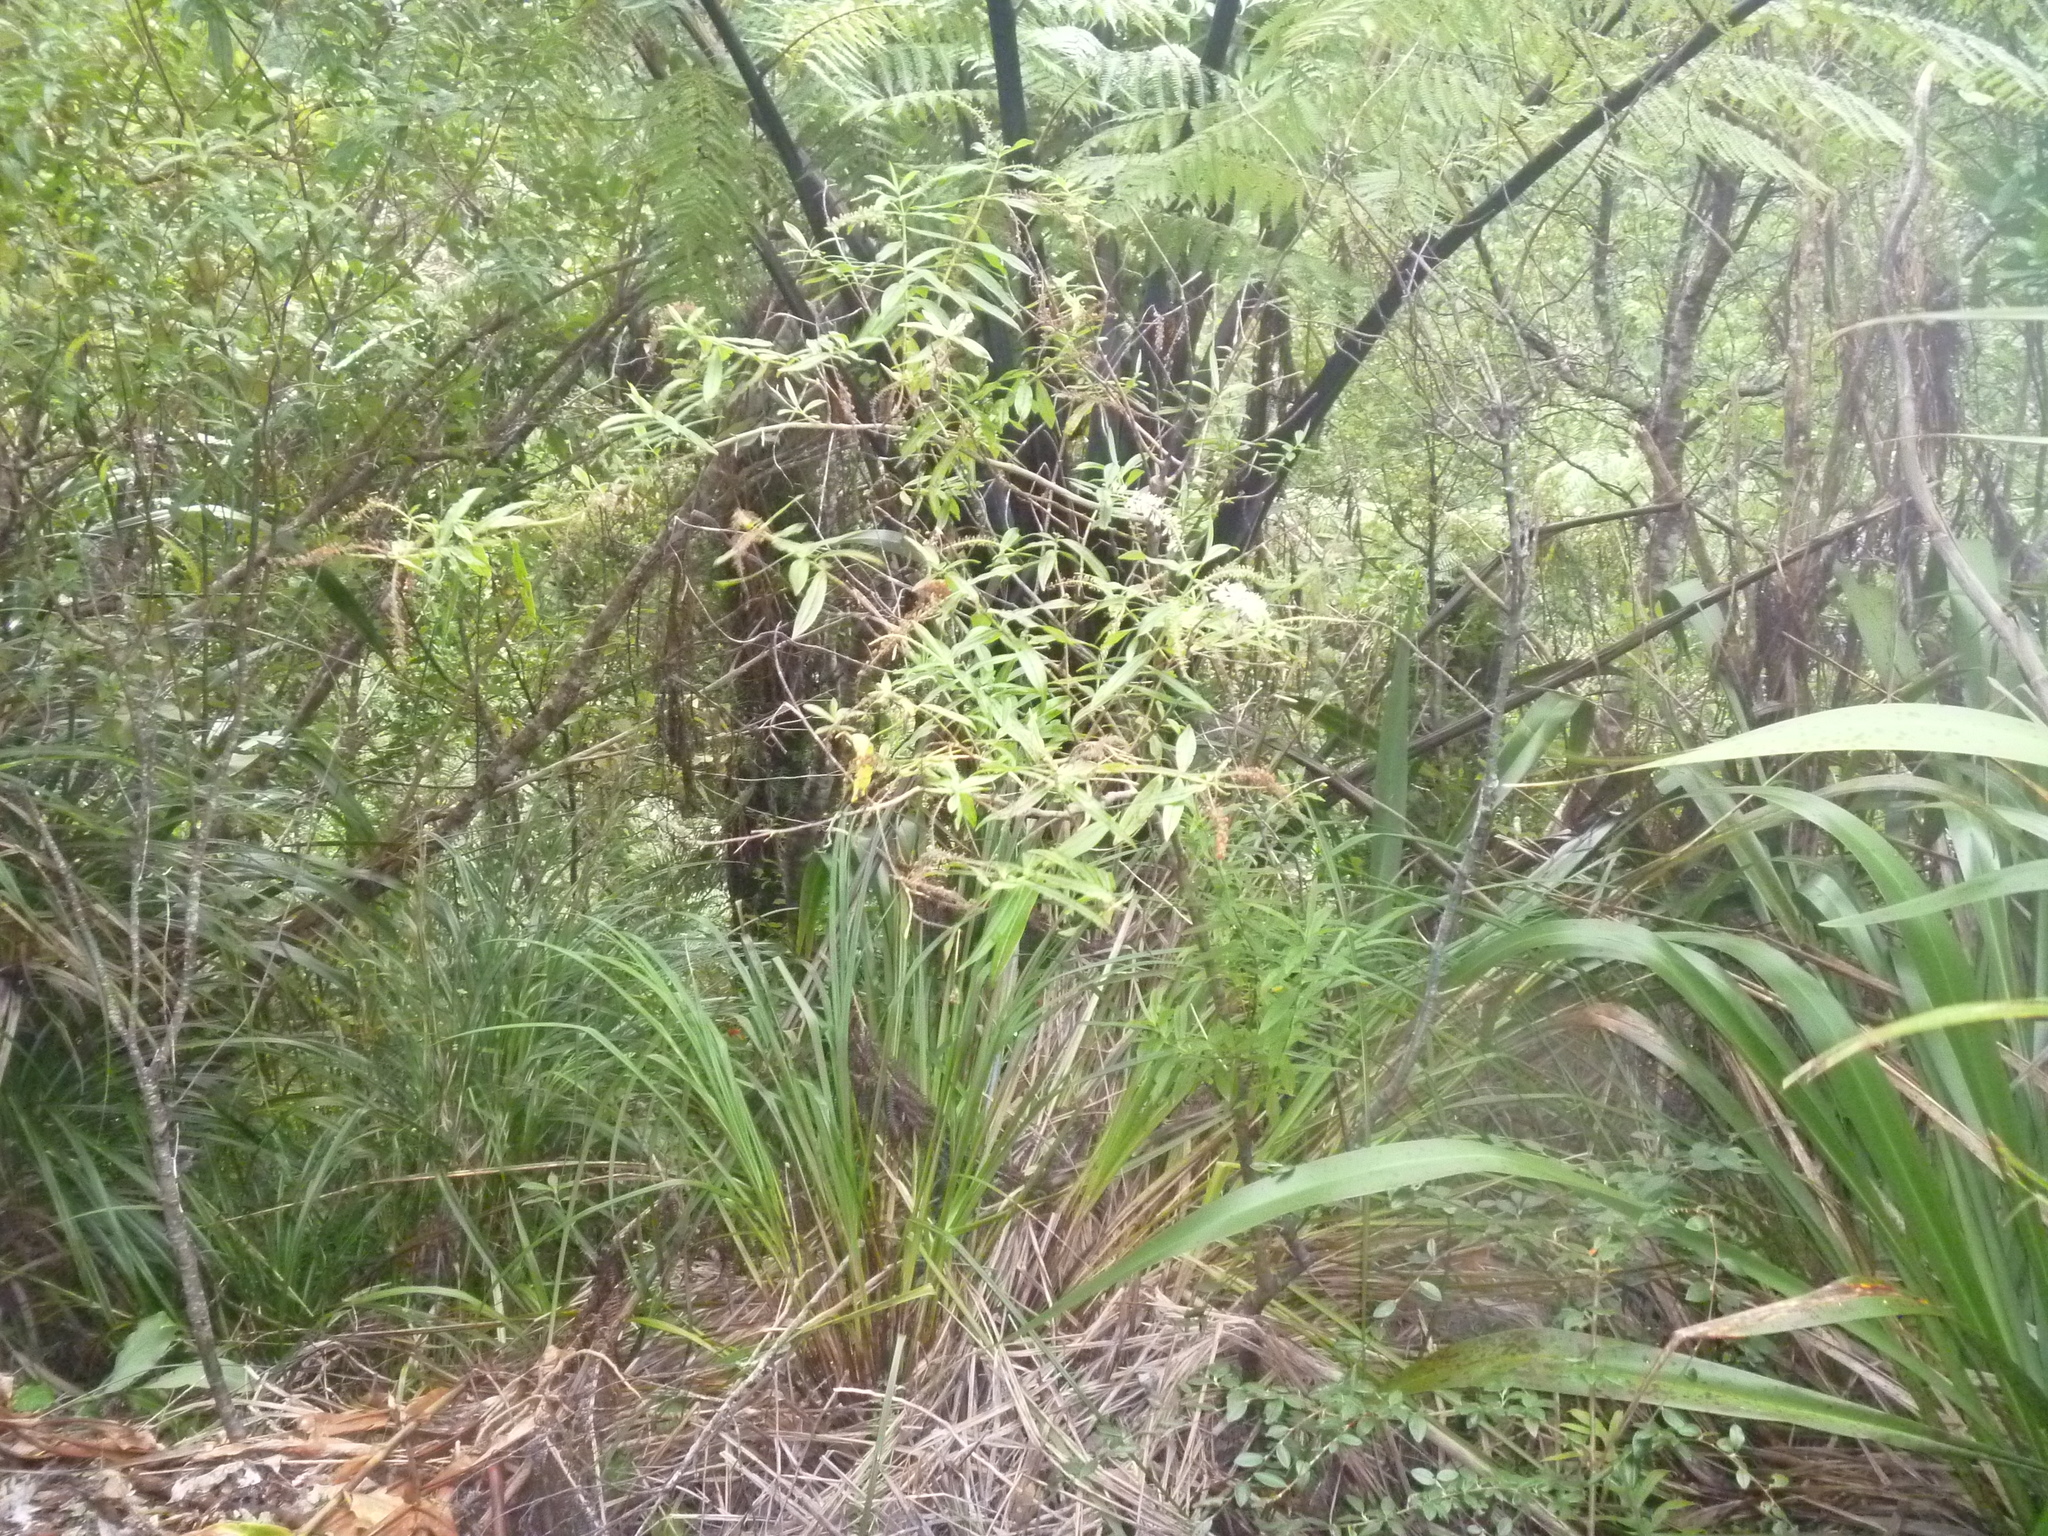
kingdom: Plantae
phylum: Tracheophyta
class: Magnoliopsida
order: Lamiales
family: Plantaginaceae
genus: Veronica
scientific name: Veronica stricta
